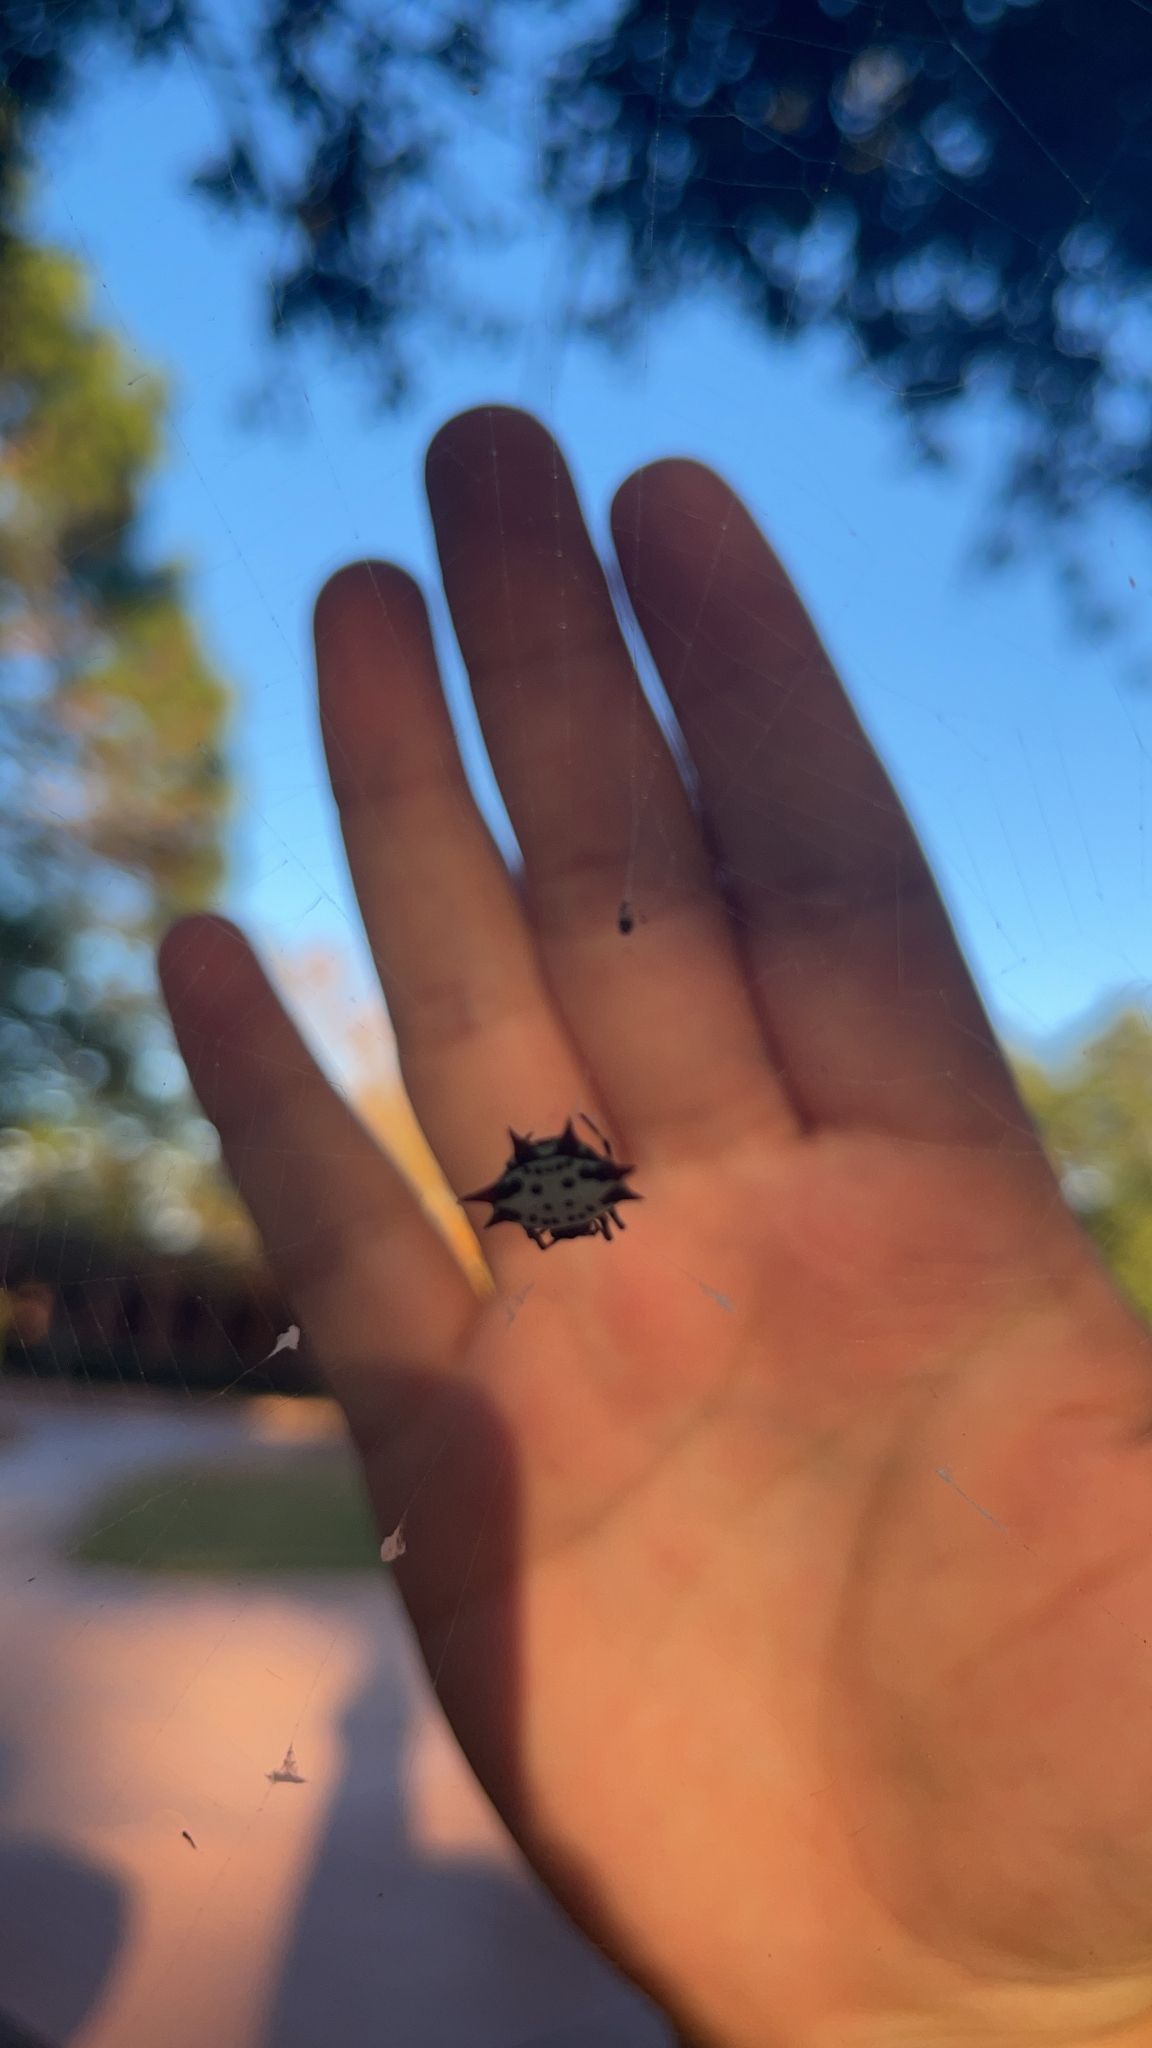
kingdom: Animalia
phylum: Arthropoda
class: Arachnida
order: Araneae
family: Araneidae
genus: Gasteracantha
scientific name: Gasteracantha cancriformis
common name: Orb weavers
